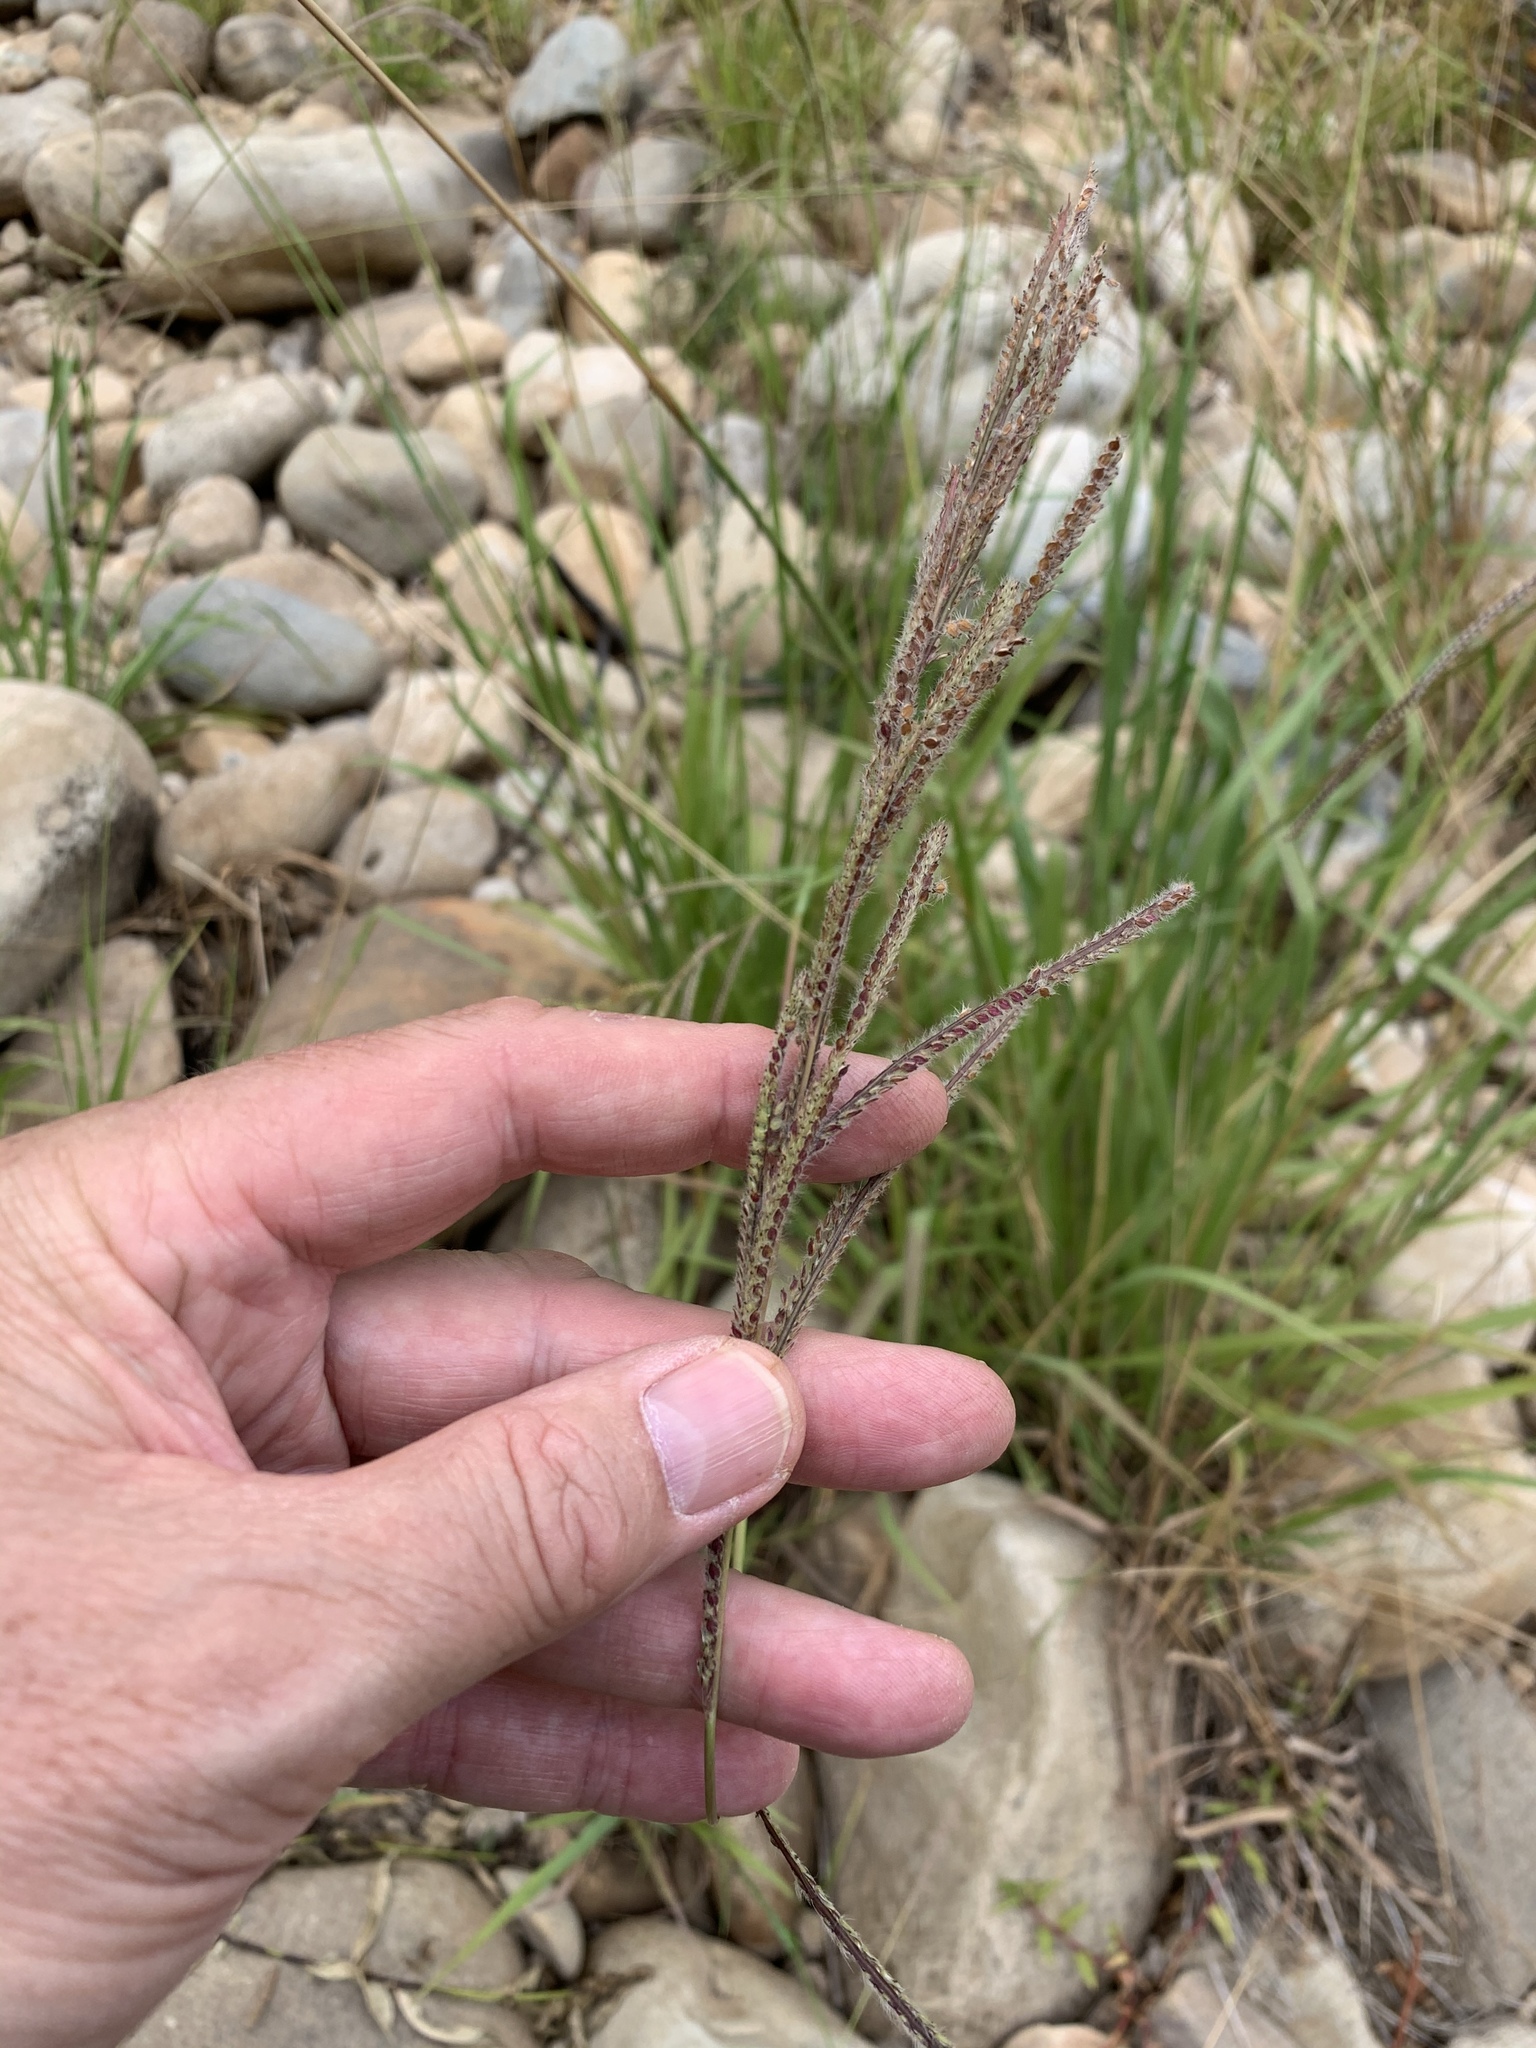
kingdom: Plantae
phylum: Tracheophyta
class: Liliopsida
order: Poales
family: Poaceae
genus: Paspalum
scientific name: Paspalum urvillei
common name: Vasey's grass
